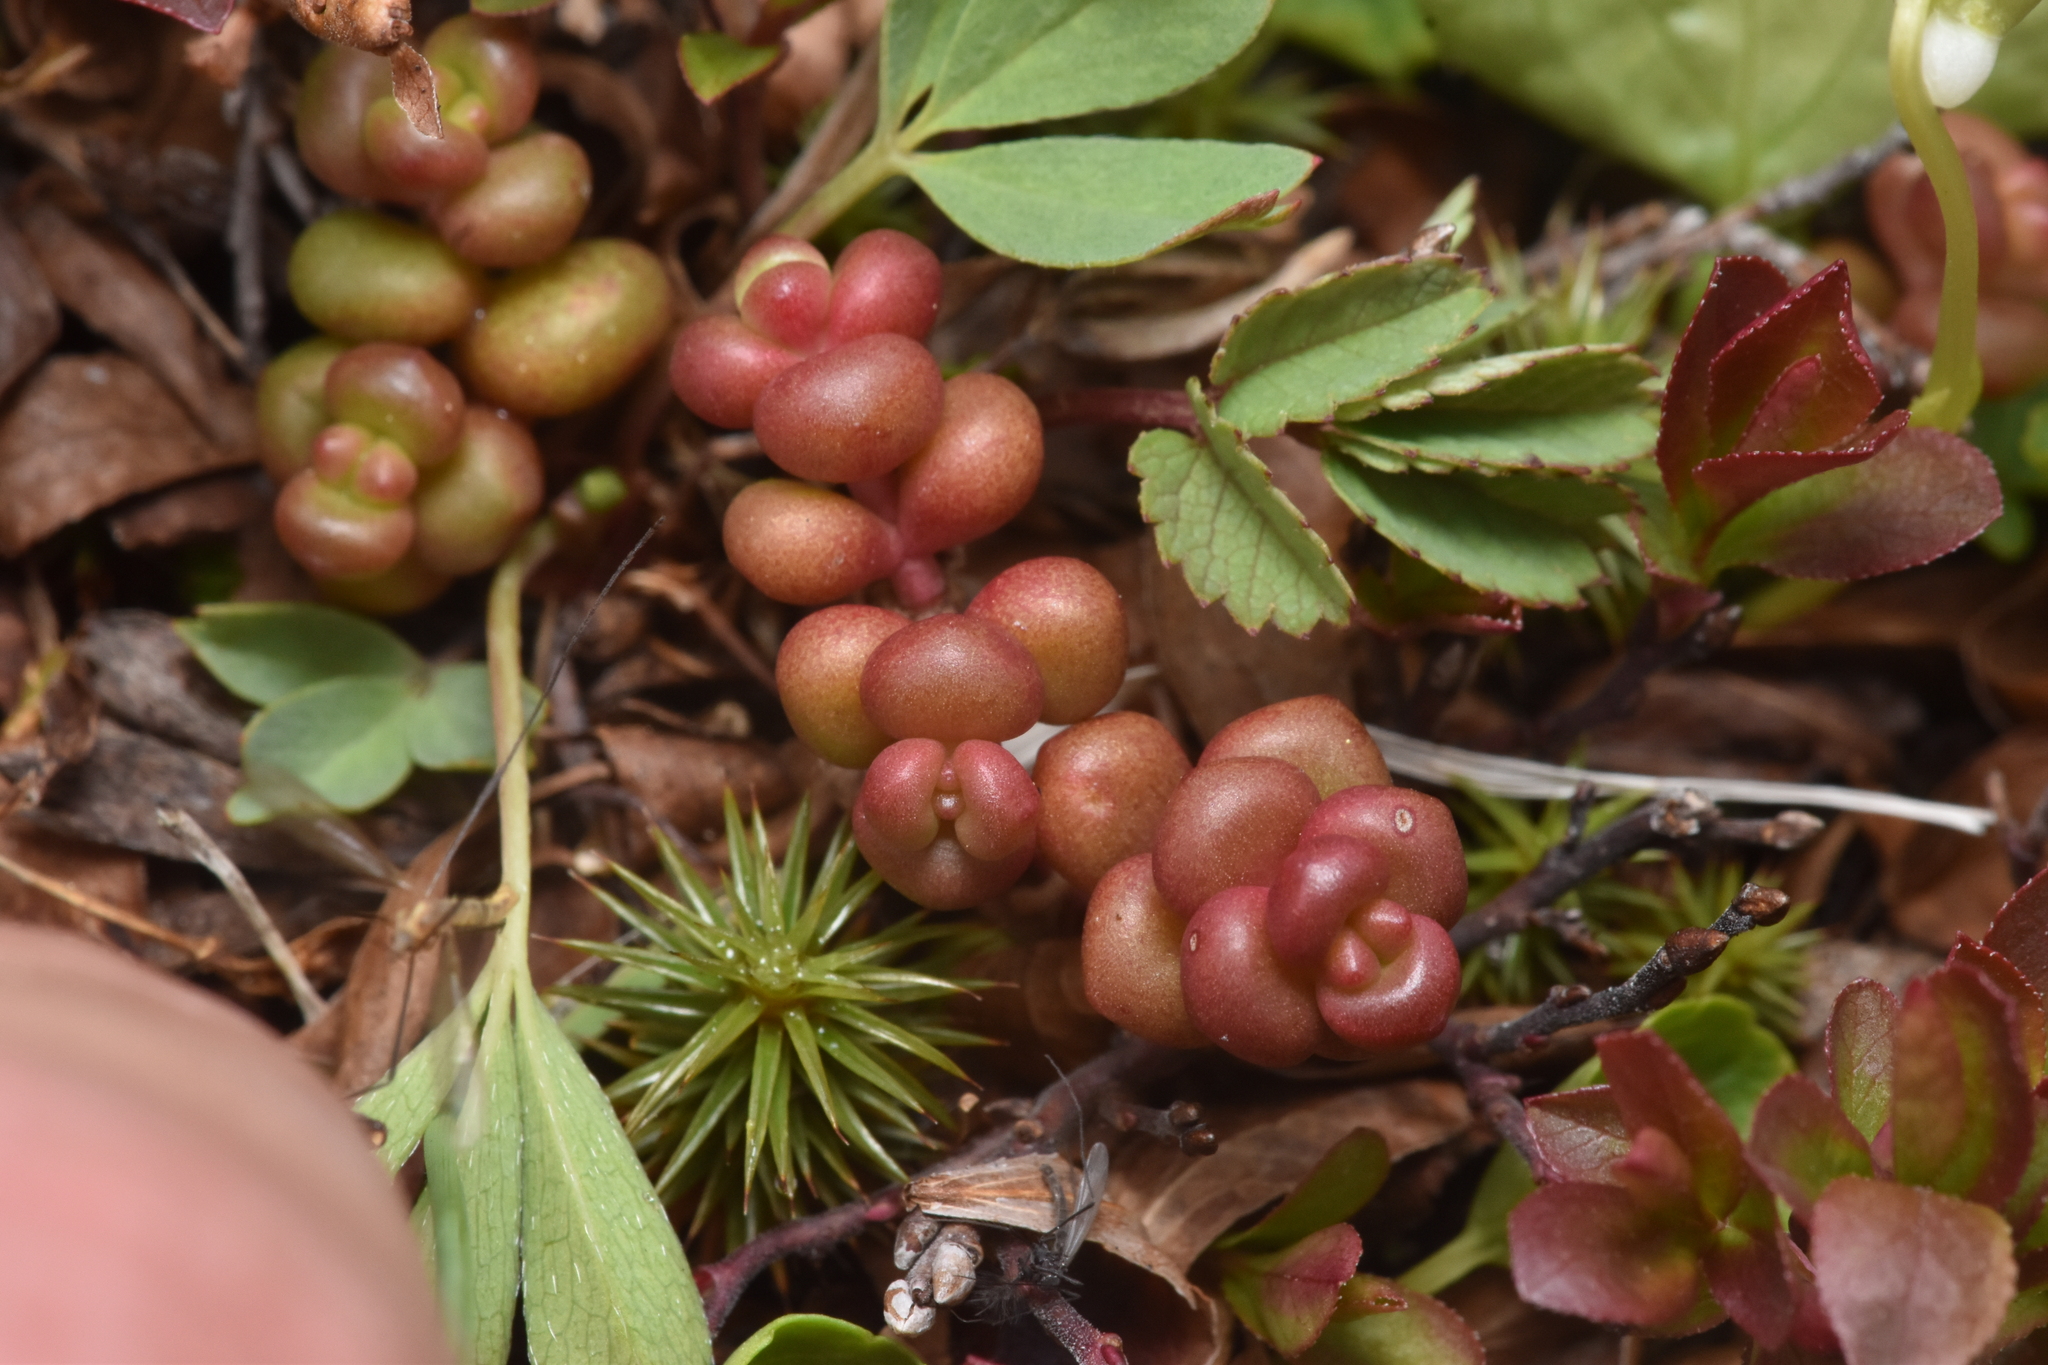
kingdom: Plantae
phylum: Tracheophyta
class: Magnoliopsida
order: Saxifragales
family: Crassulaceae
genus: Sedum
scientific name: Sedum divergens
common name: Cascade stonecrop
